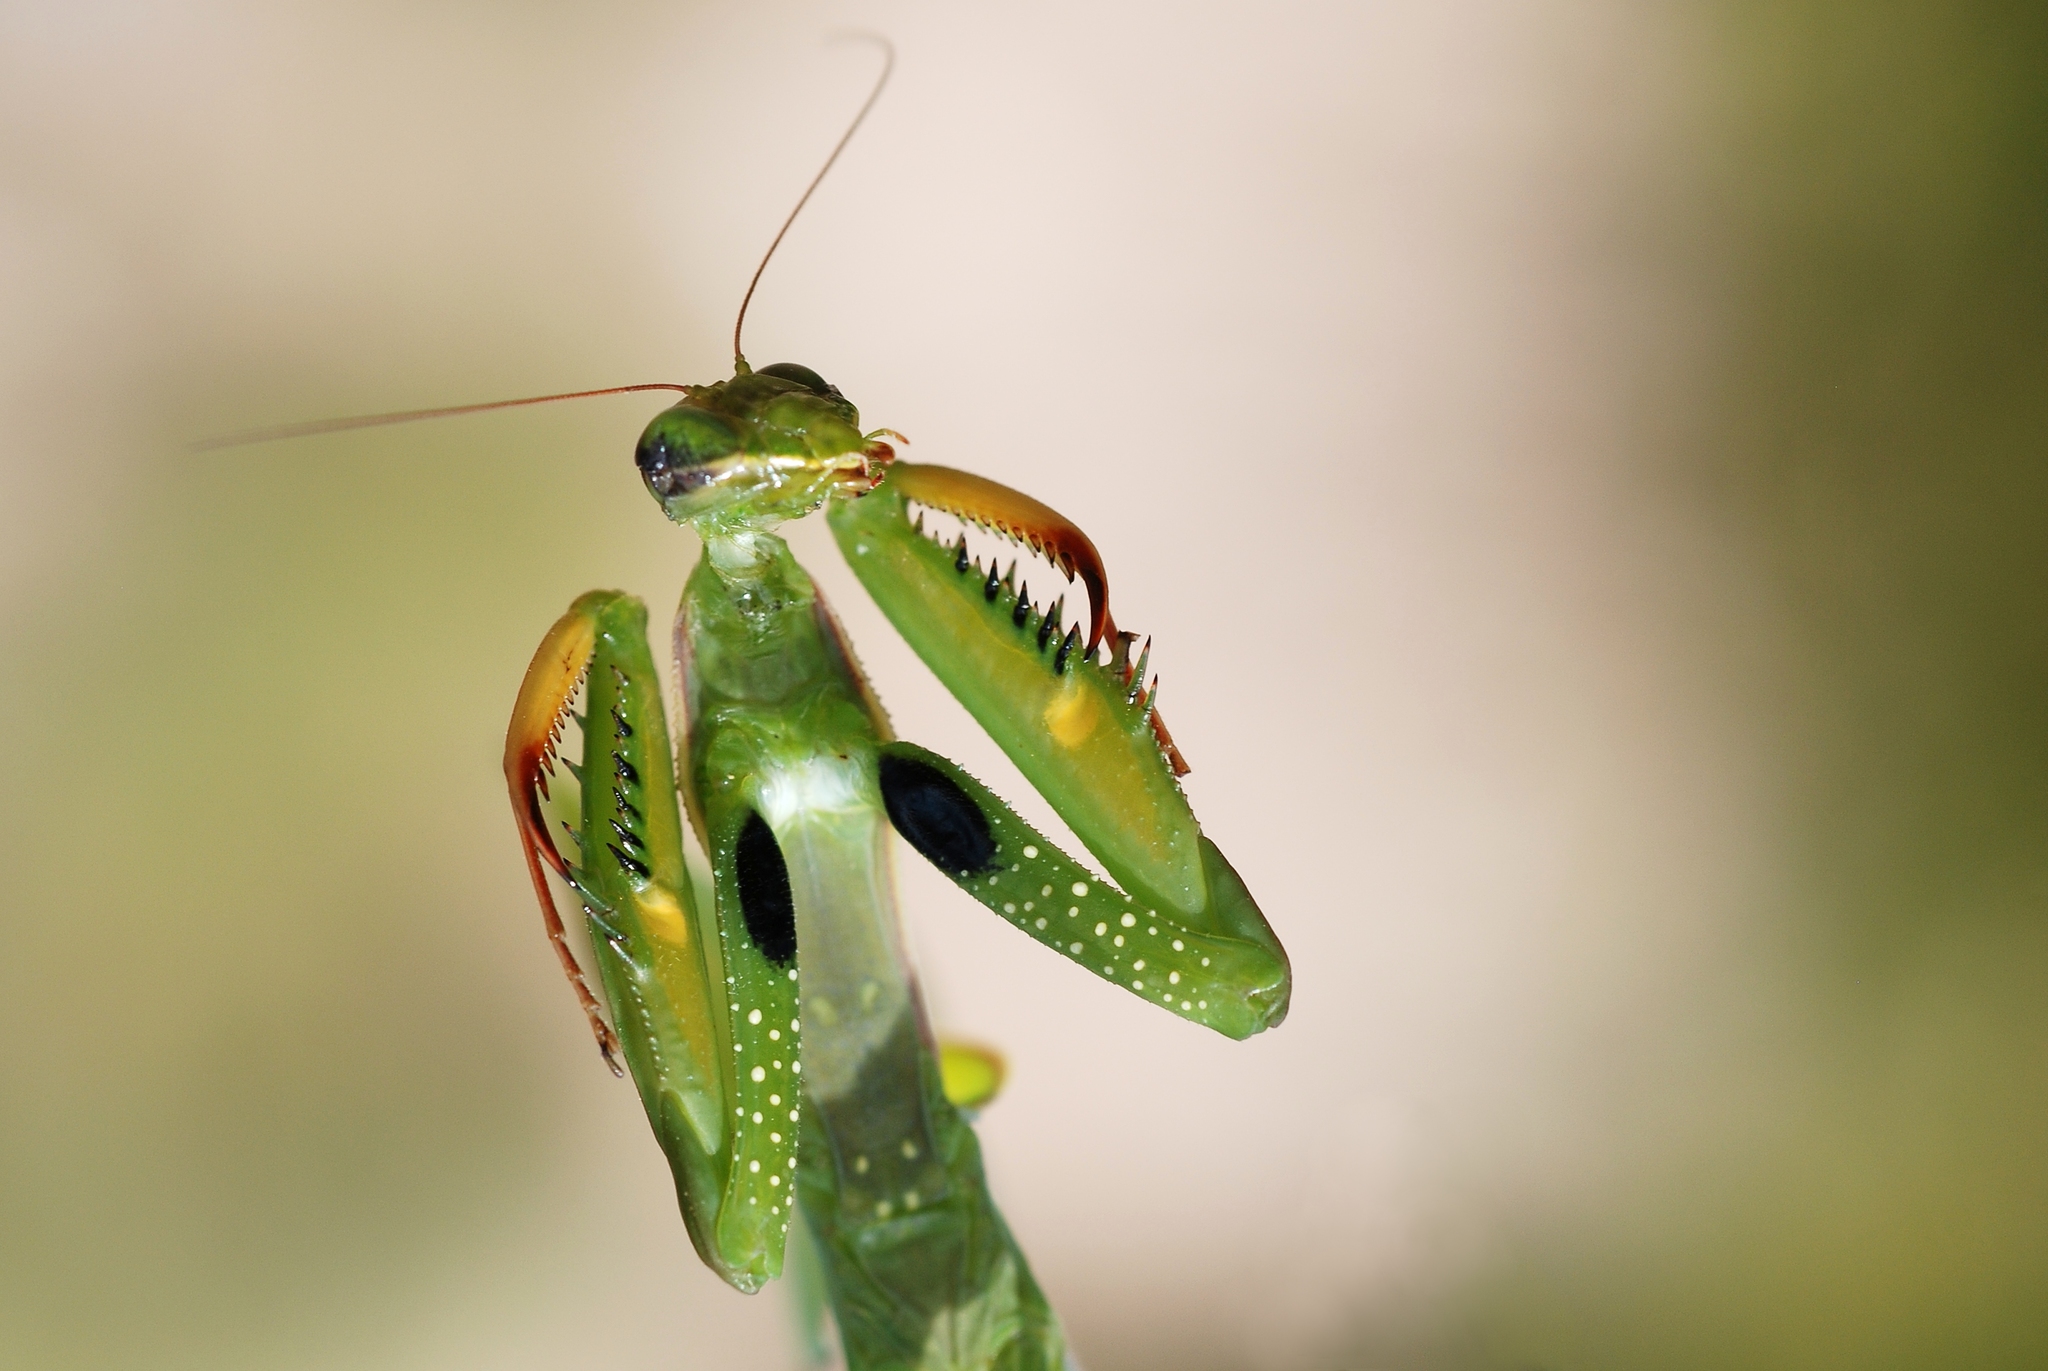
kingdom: Animalia
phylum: Arthropoda
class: Insecta
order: Mantodea
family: Mantidae
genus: Mantis
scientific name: Mantis religiosa
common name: Praying mantis
